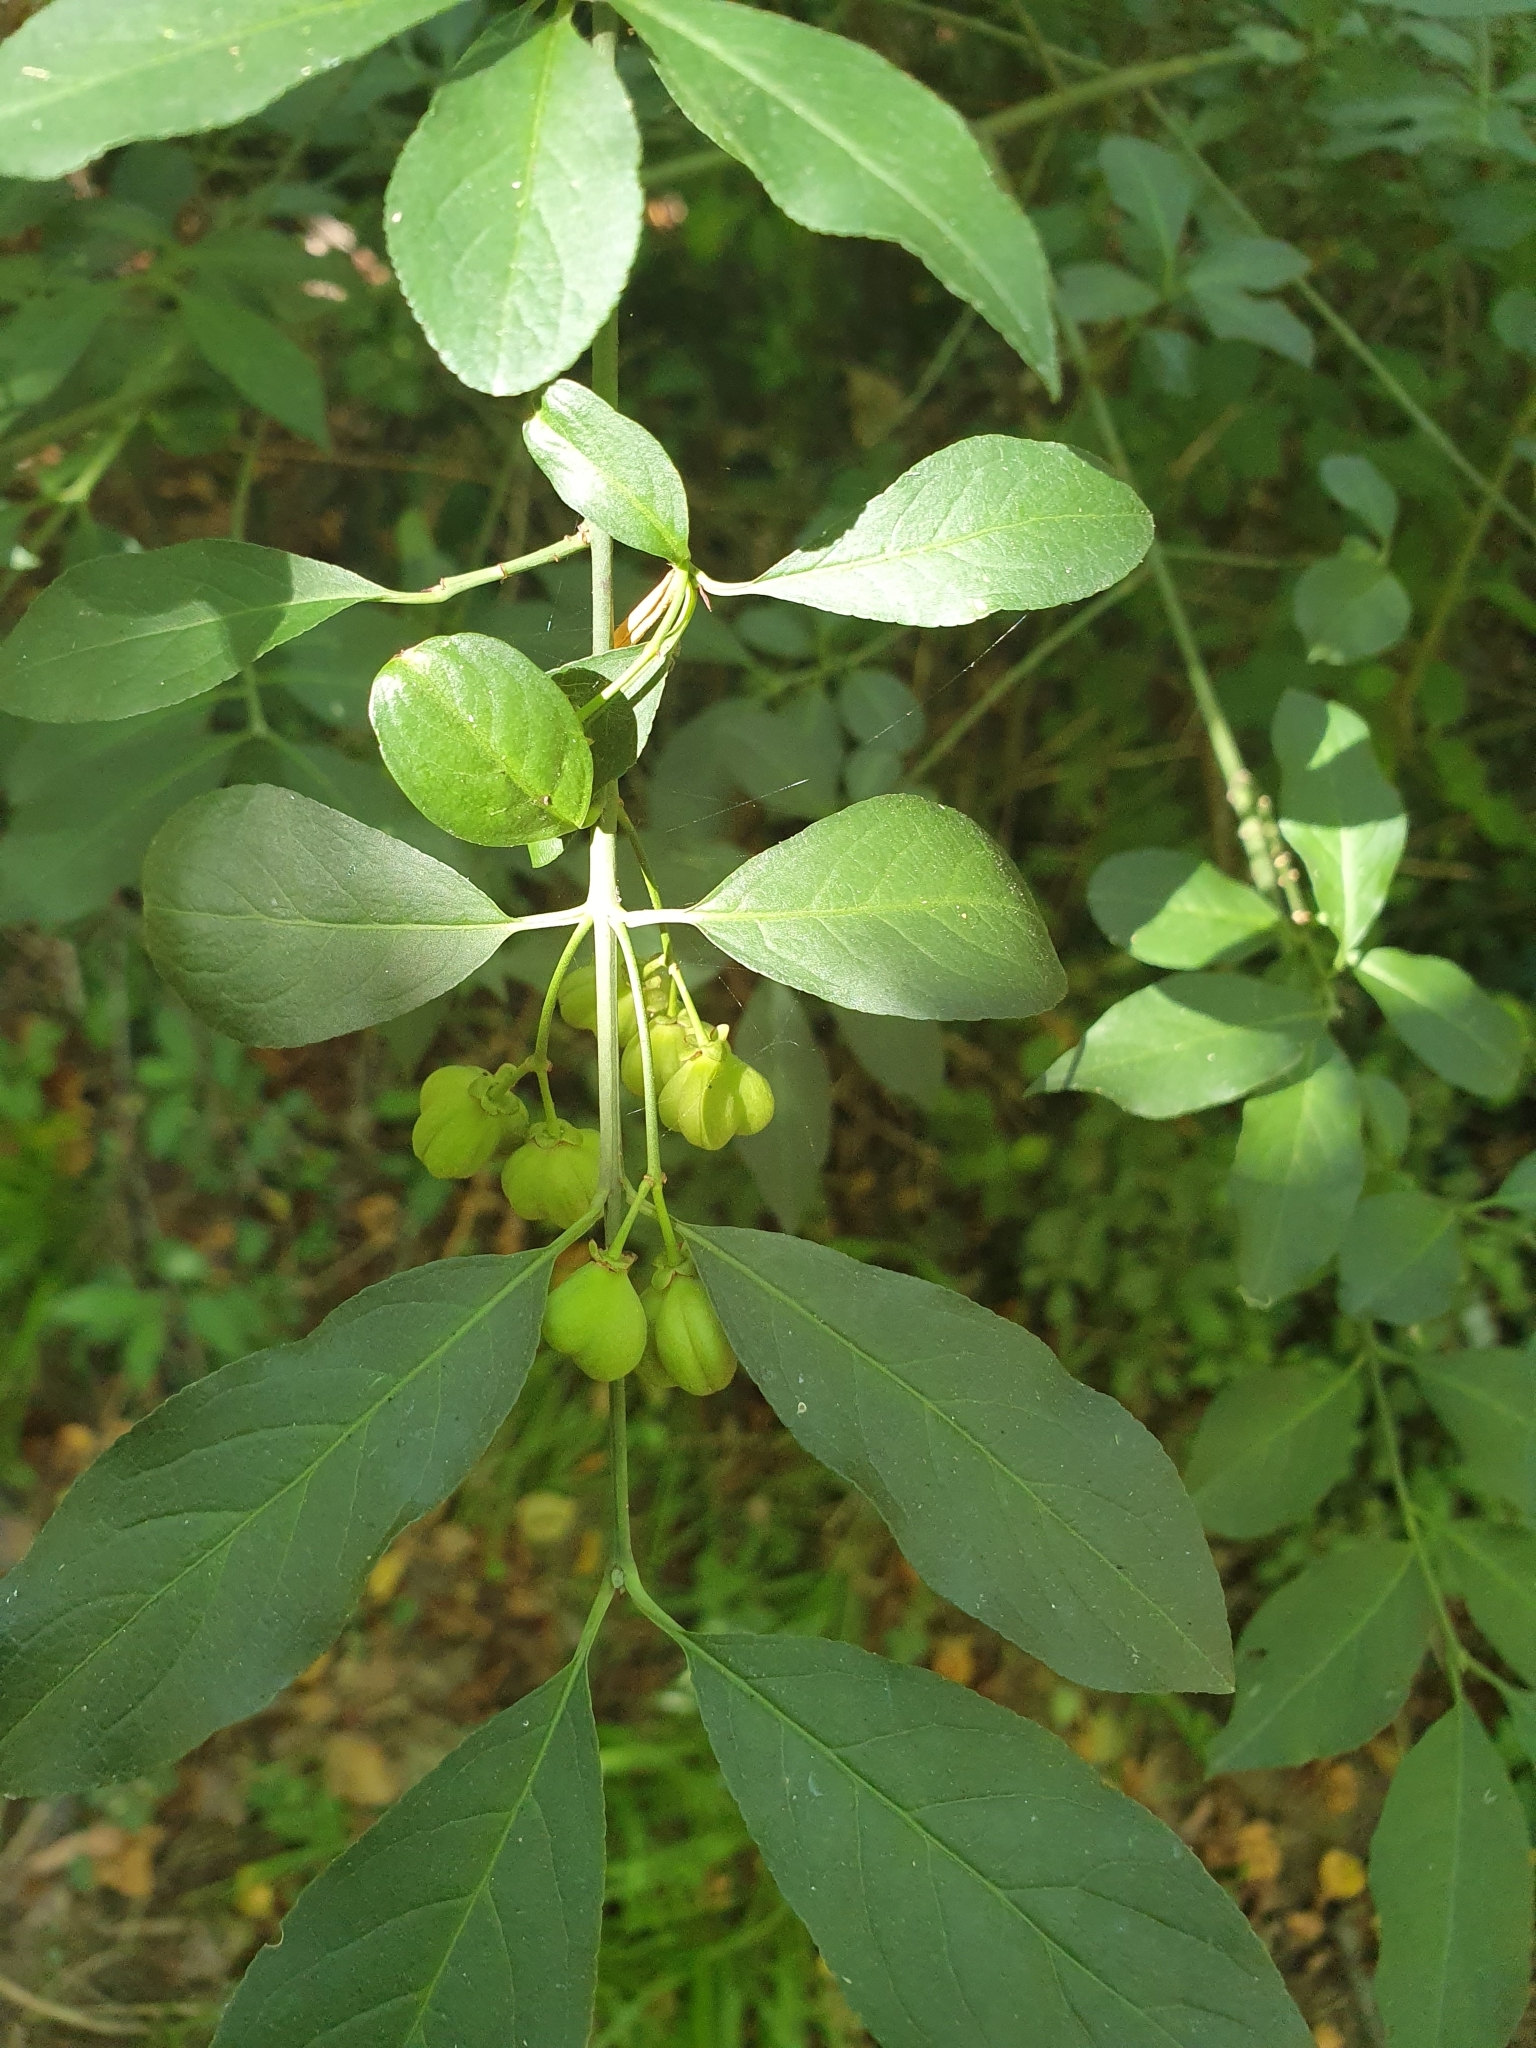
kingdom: Plantae
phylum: Tracheophyta
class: Magnoliopsida
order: Celastrales
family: Celastraceae
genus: Euonymus
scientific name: Euonymus europaeus
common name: Spindle
